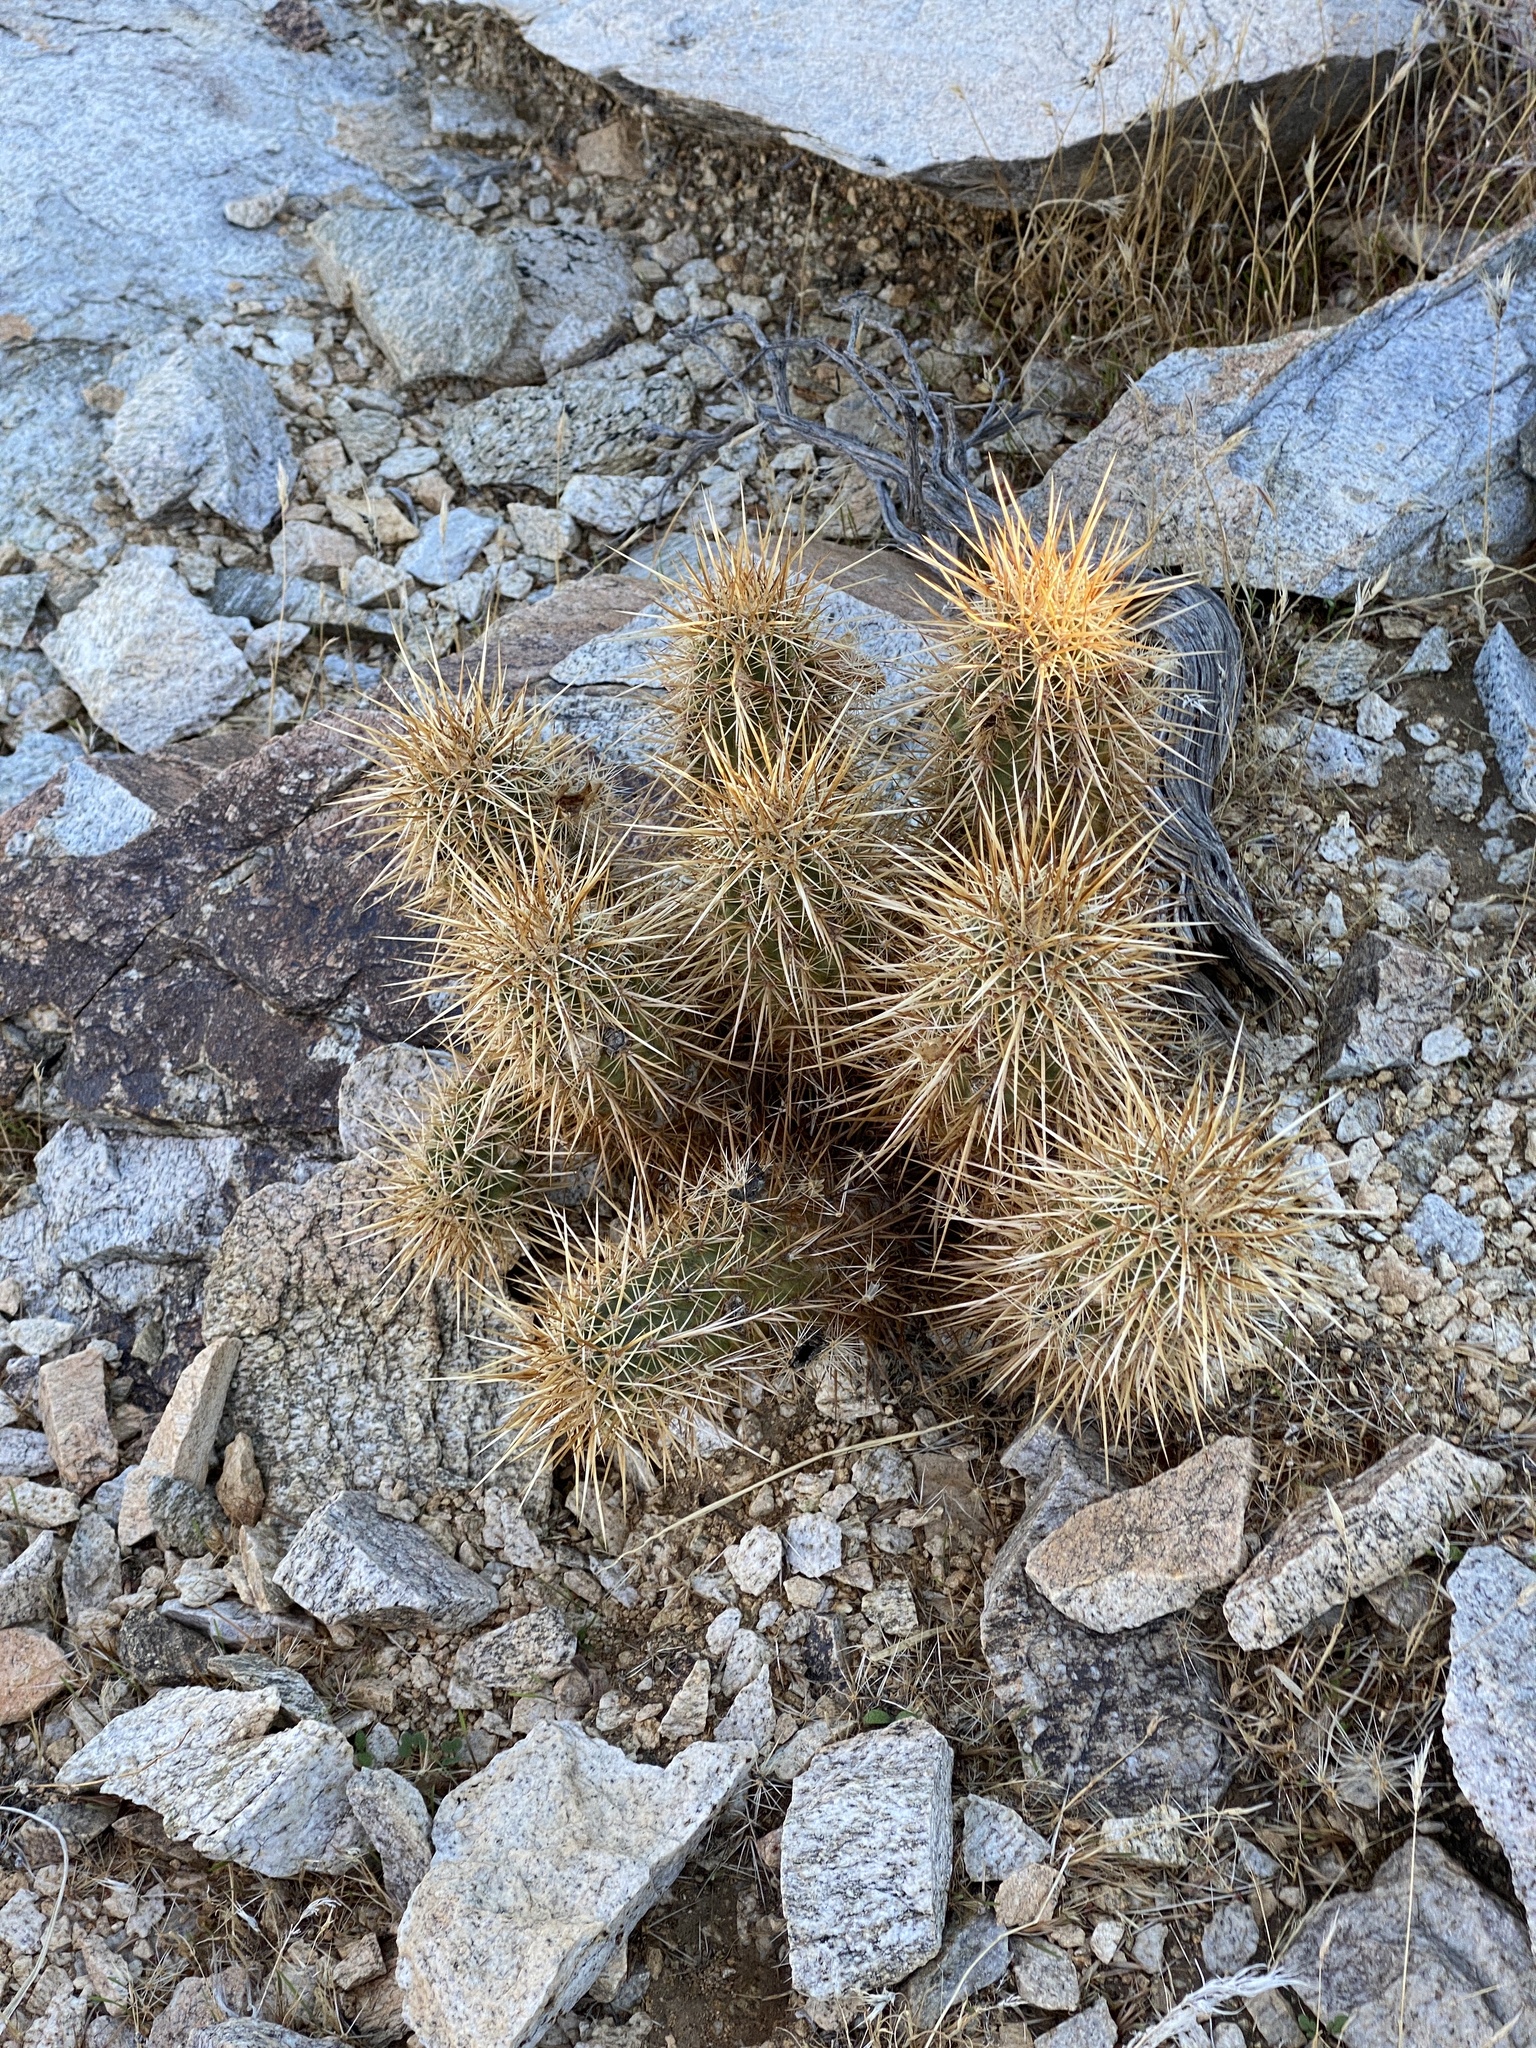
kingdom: Plantae
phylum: Tracheophyta
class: Magnoliopsida
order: Caryophyllales
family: Cactaceae
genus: Echinocereus
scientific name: Echinocereus engelmannii
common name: Engelmann's hedgehog cactus
